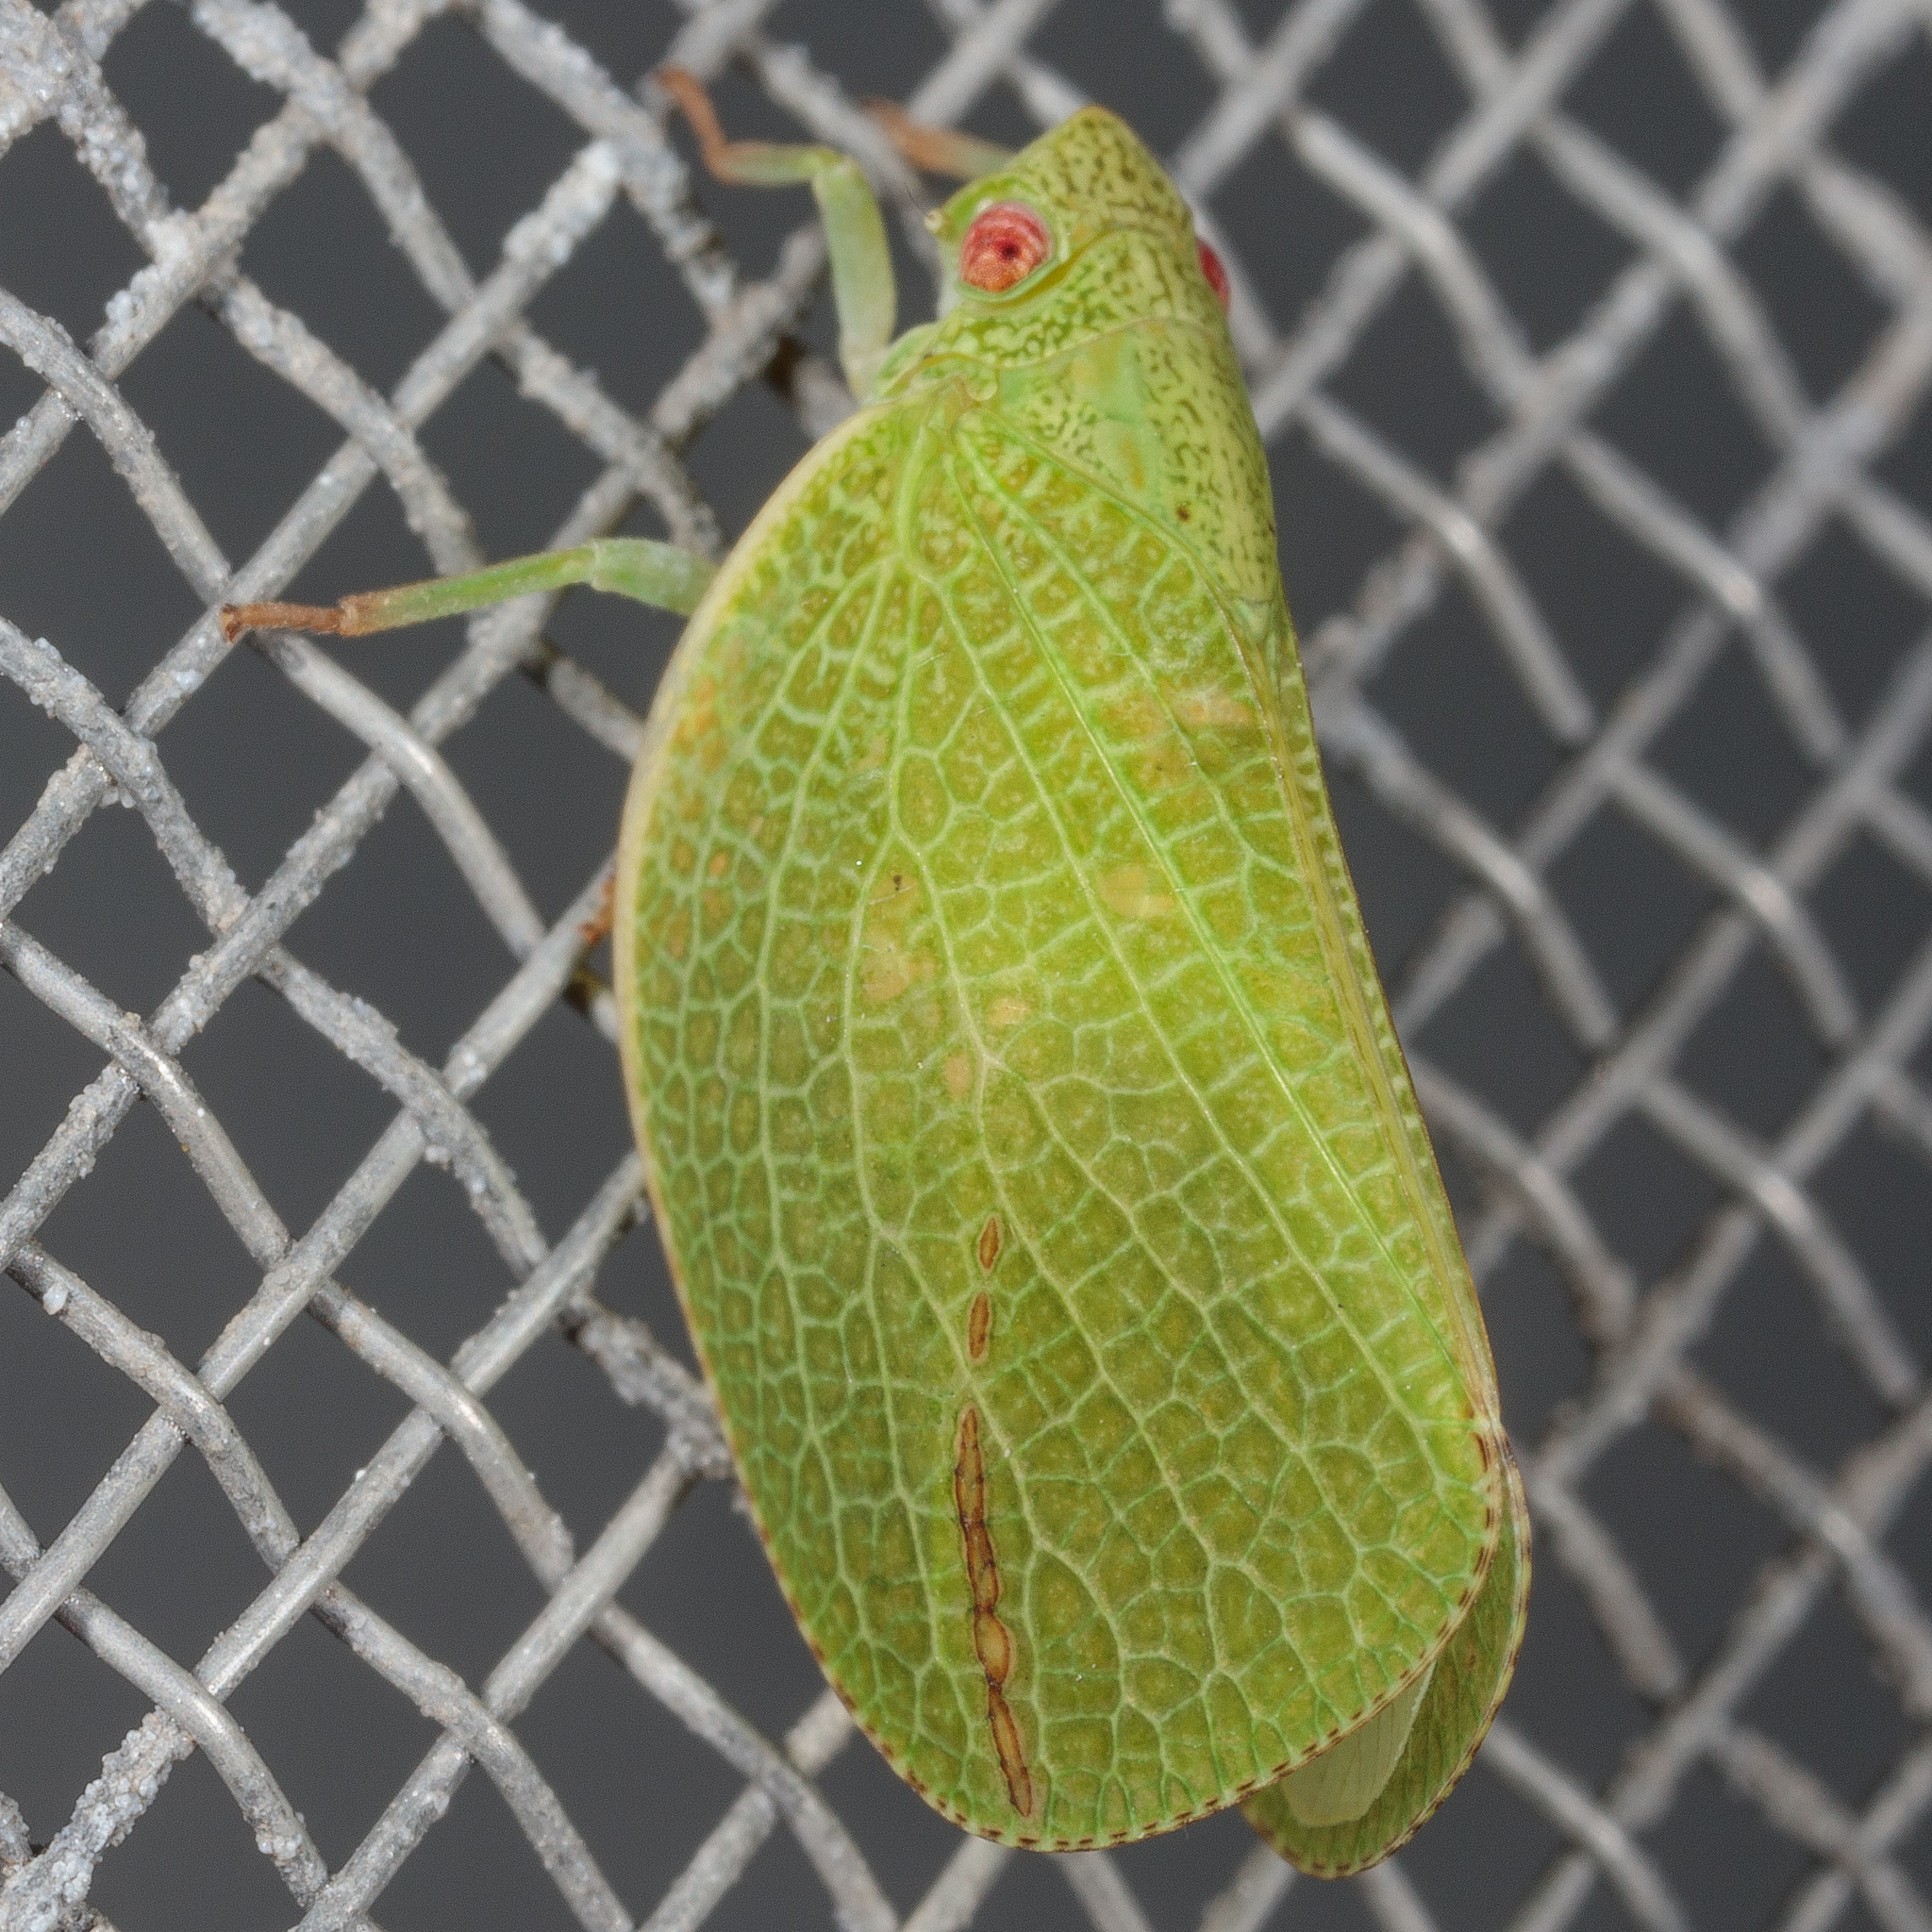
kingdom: Animalia
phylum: Arthropoda
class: Insecta
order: Hemiptera
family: Acanaloniidae
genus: Acanalonia
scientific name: Acanalonia conica
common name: Green cone-headed planthopper
